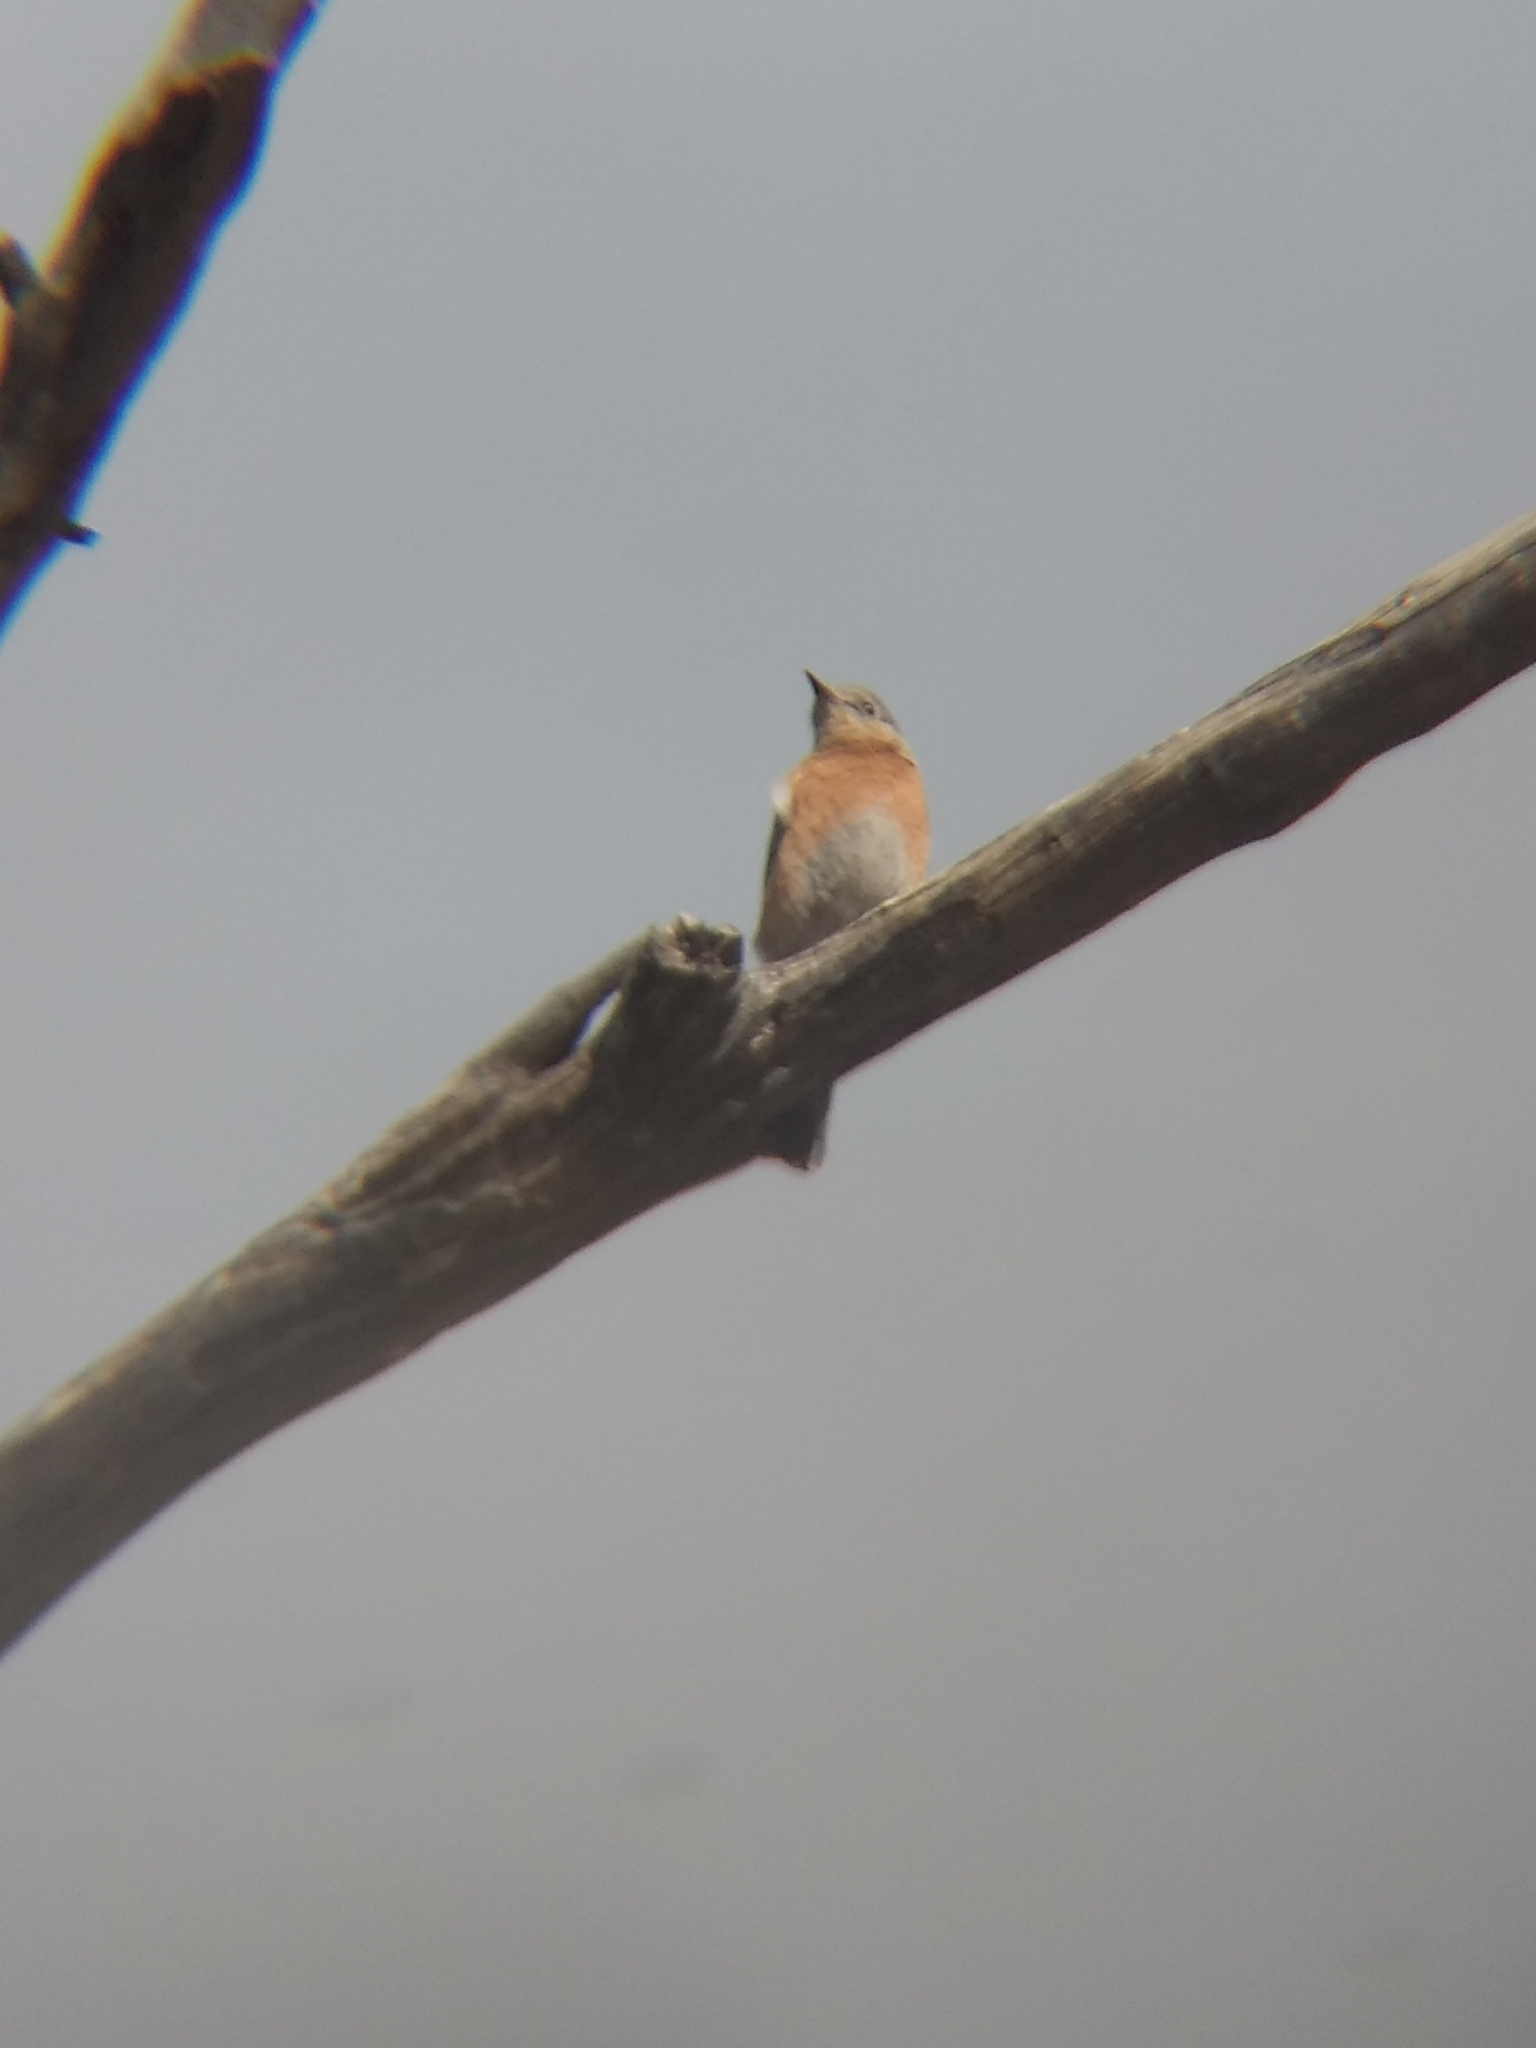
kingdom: Animalia
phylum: Chordata
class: Aves
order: Passeriformes
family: Turdidae
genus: Sialia
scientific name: Sialia mexicana
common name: Western bluebird
